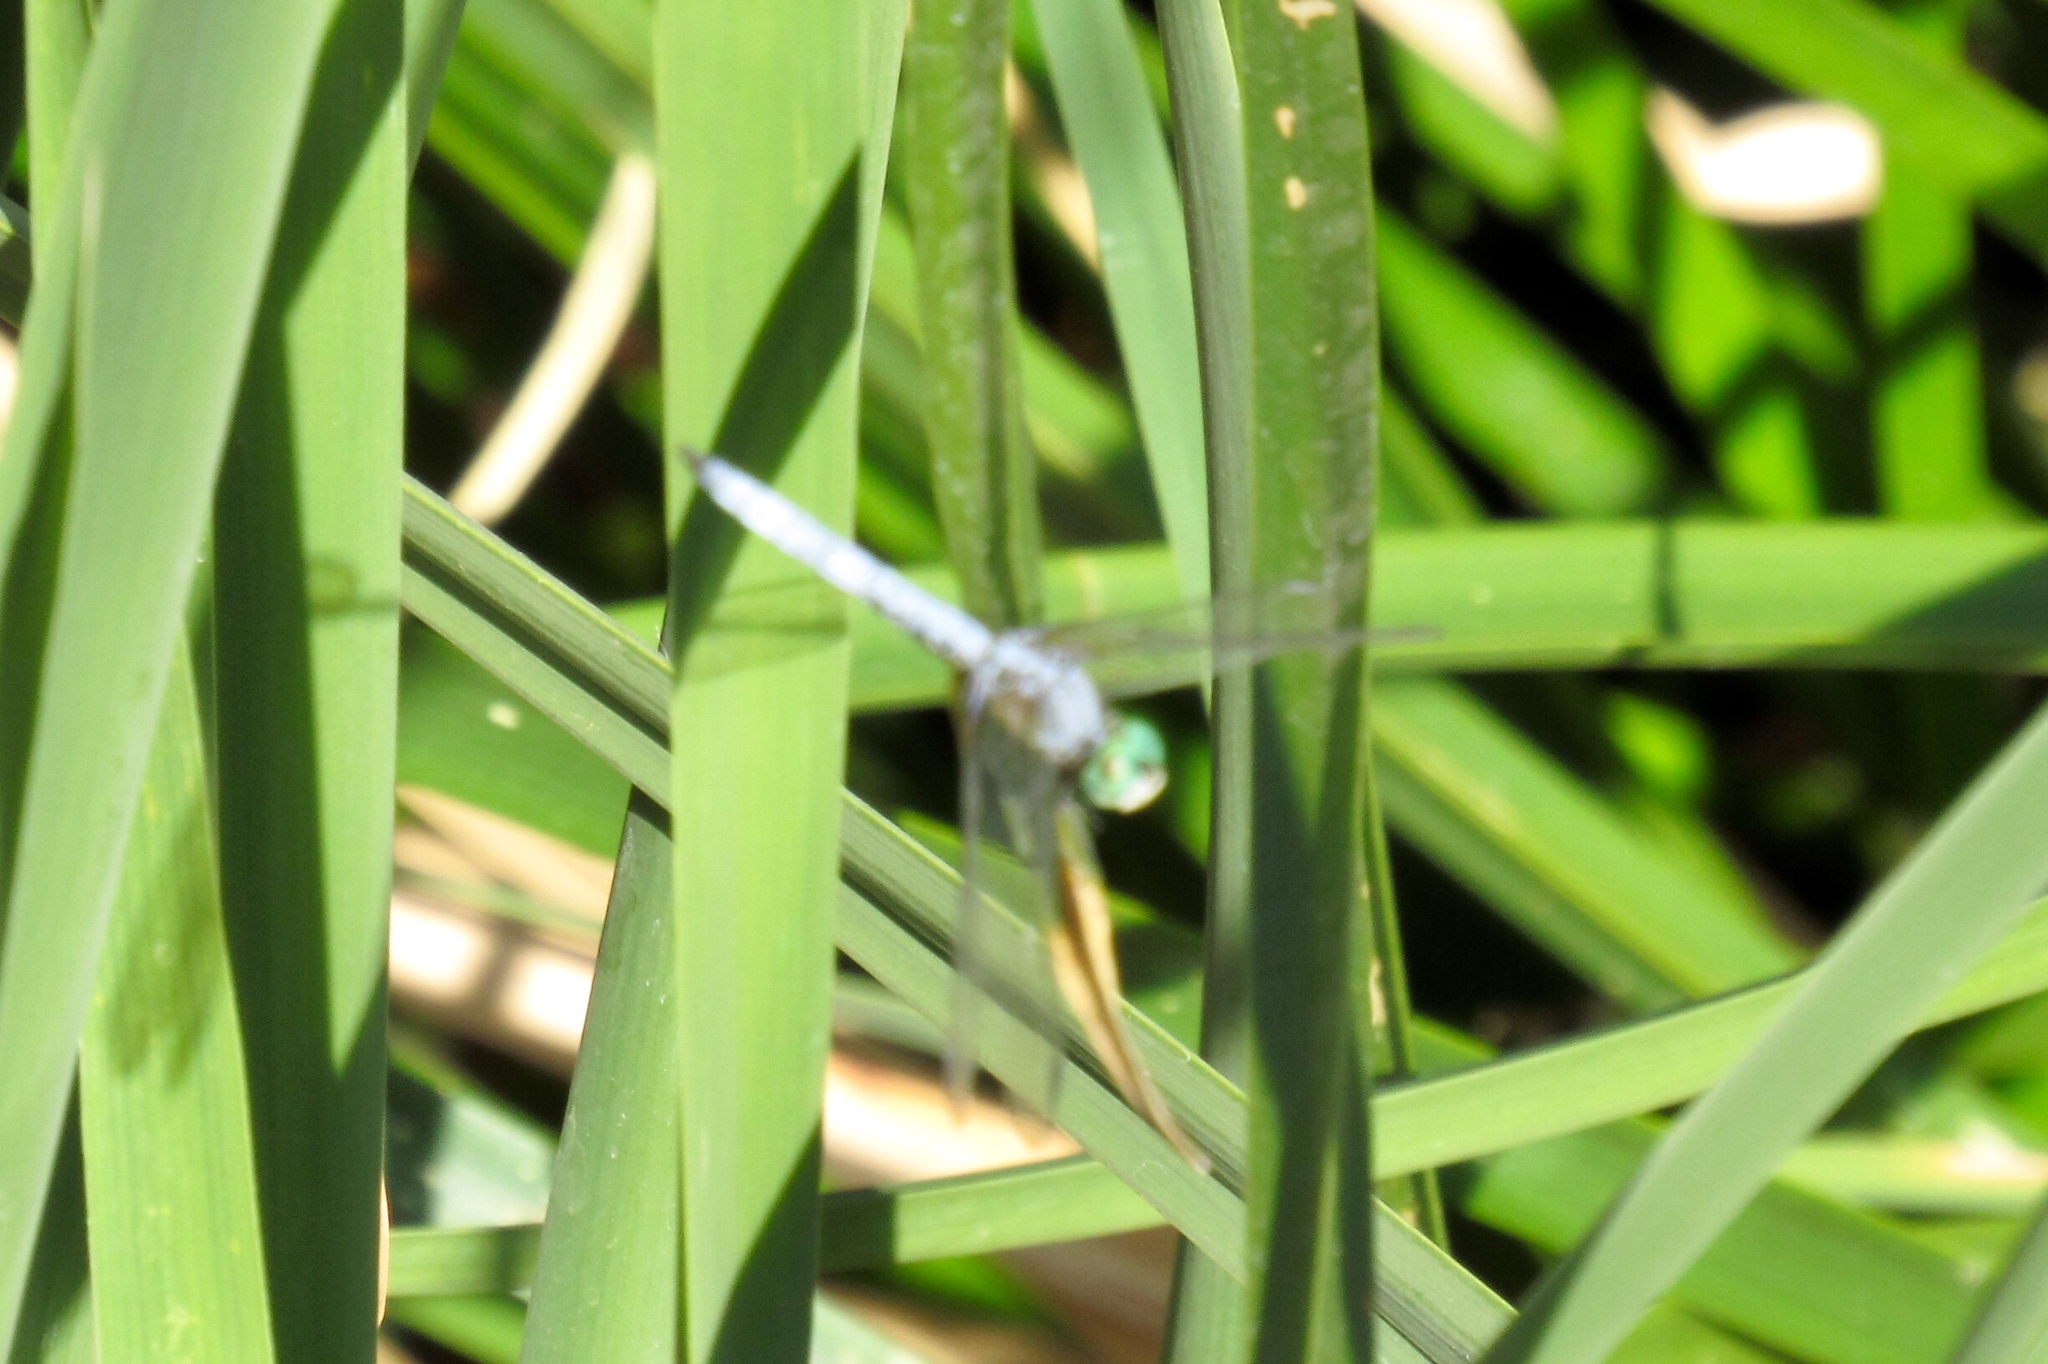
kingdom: Animalia
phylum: Arthropoda
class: Insecta
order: Odonata
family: Libellulidae
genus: Pachydiplax
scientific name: Pachydiplax longipennis
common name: Blue dasher
